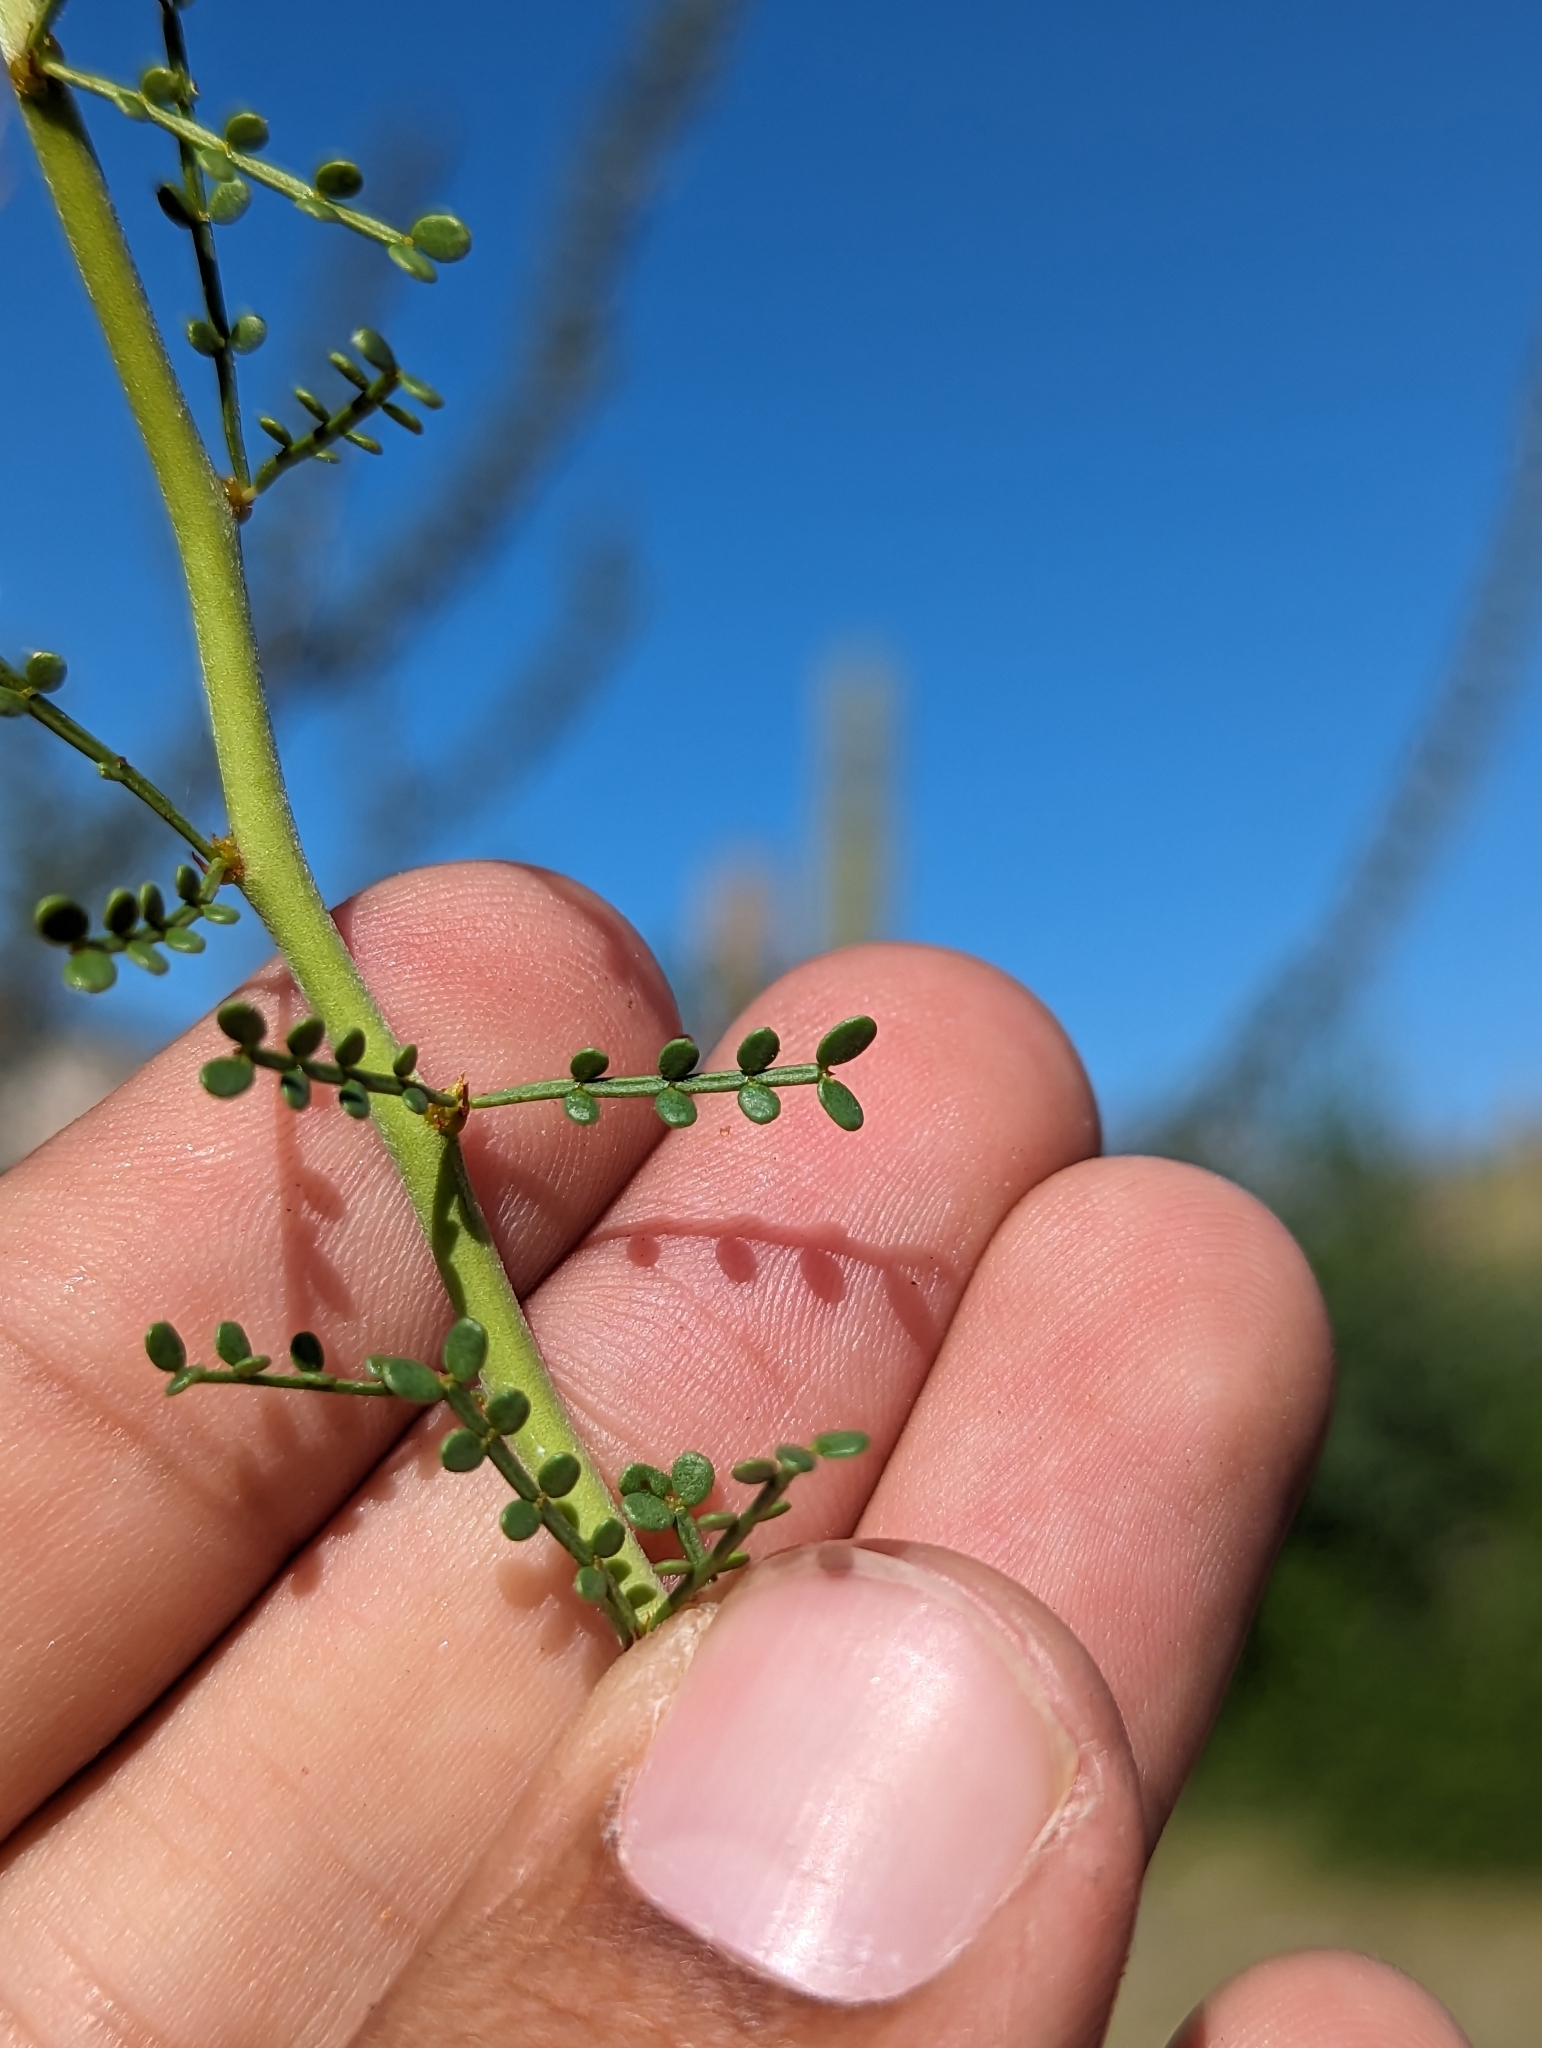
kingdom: Plantae
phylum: Tracheophyta
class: Magnoliopsida
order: Fabales
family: Fabaceae
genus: Parkinsonia
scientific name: Parkinsonia microphylla
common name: Yellow paloverde
